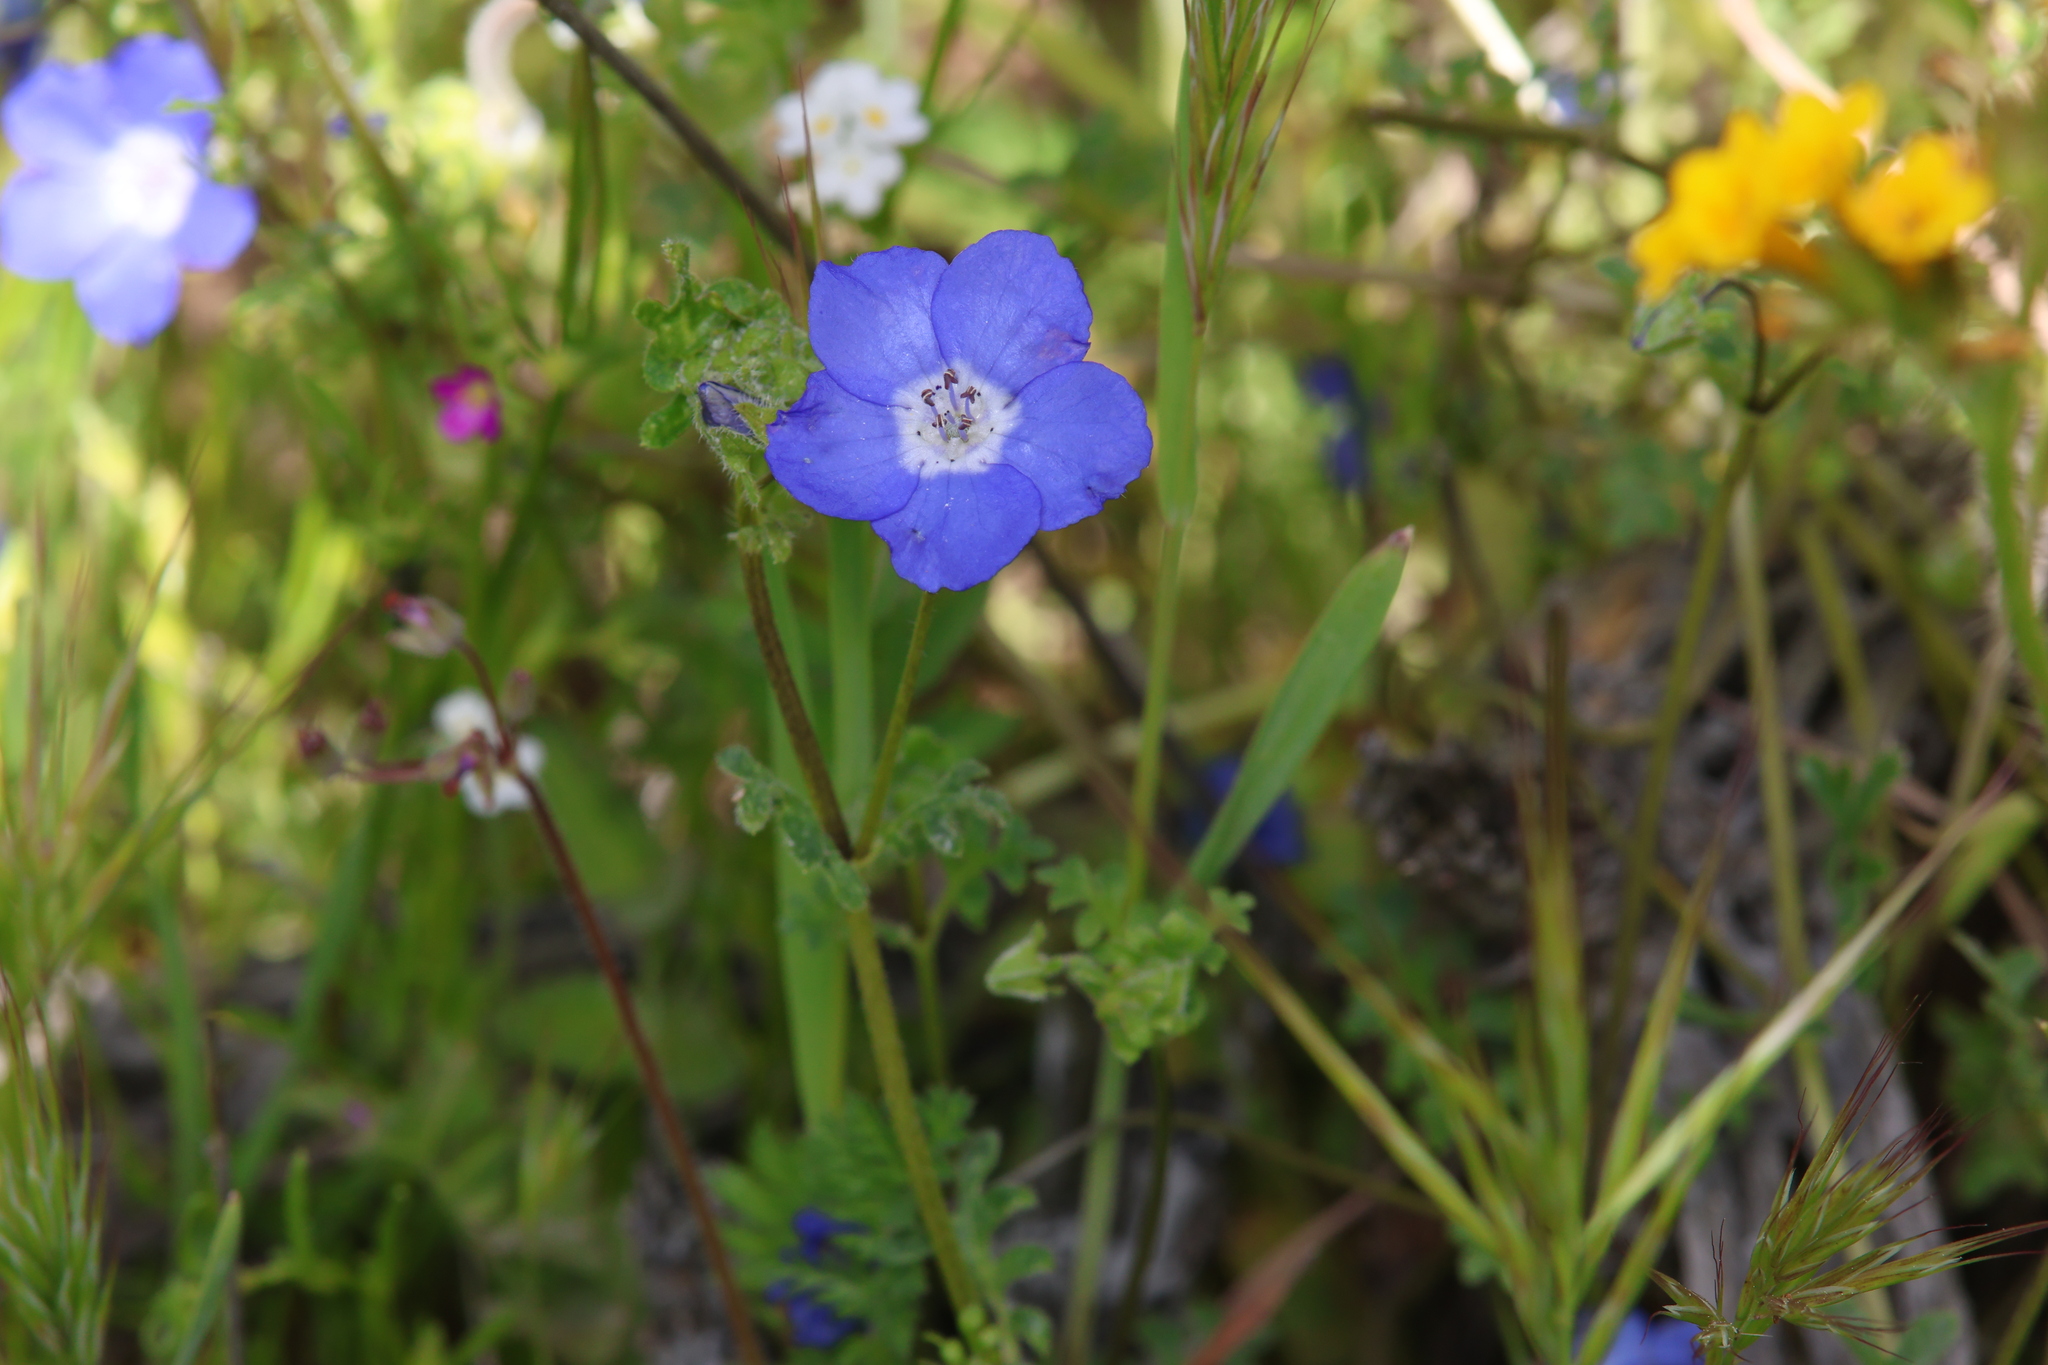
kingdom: Plantae
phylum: Tracheophyta
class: Magnoliopsida
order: Boraginales
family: Hydrophyllaceae
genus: Nemophila
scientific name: Nemophila menziesii
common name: Baby's-blue-eyes
